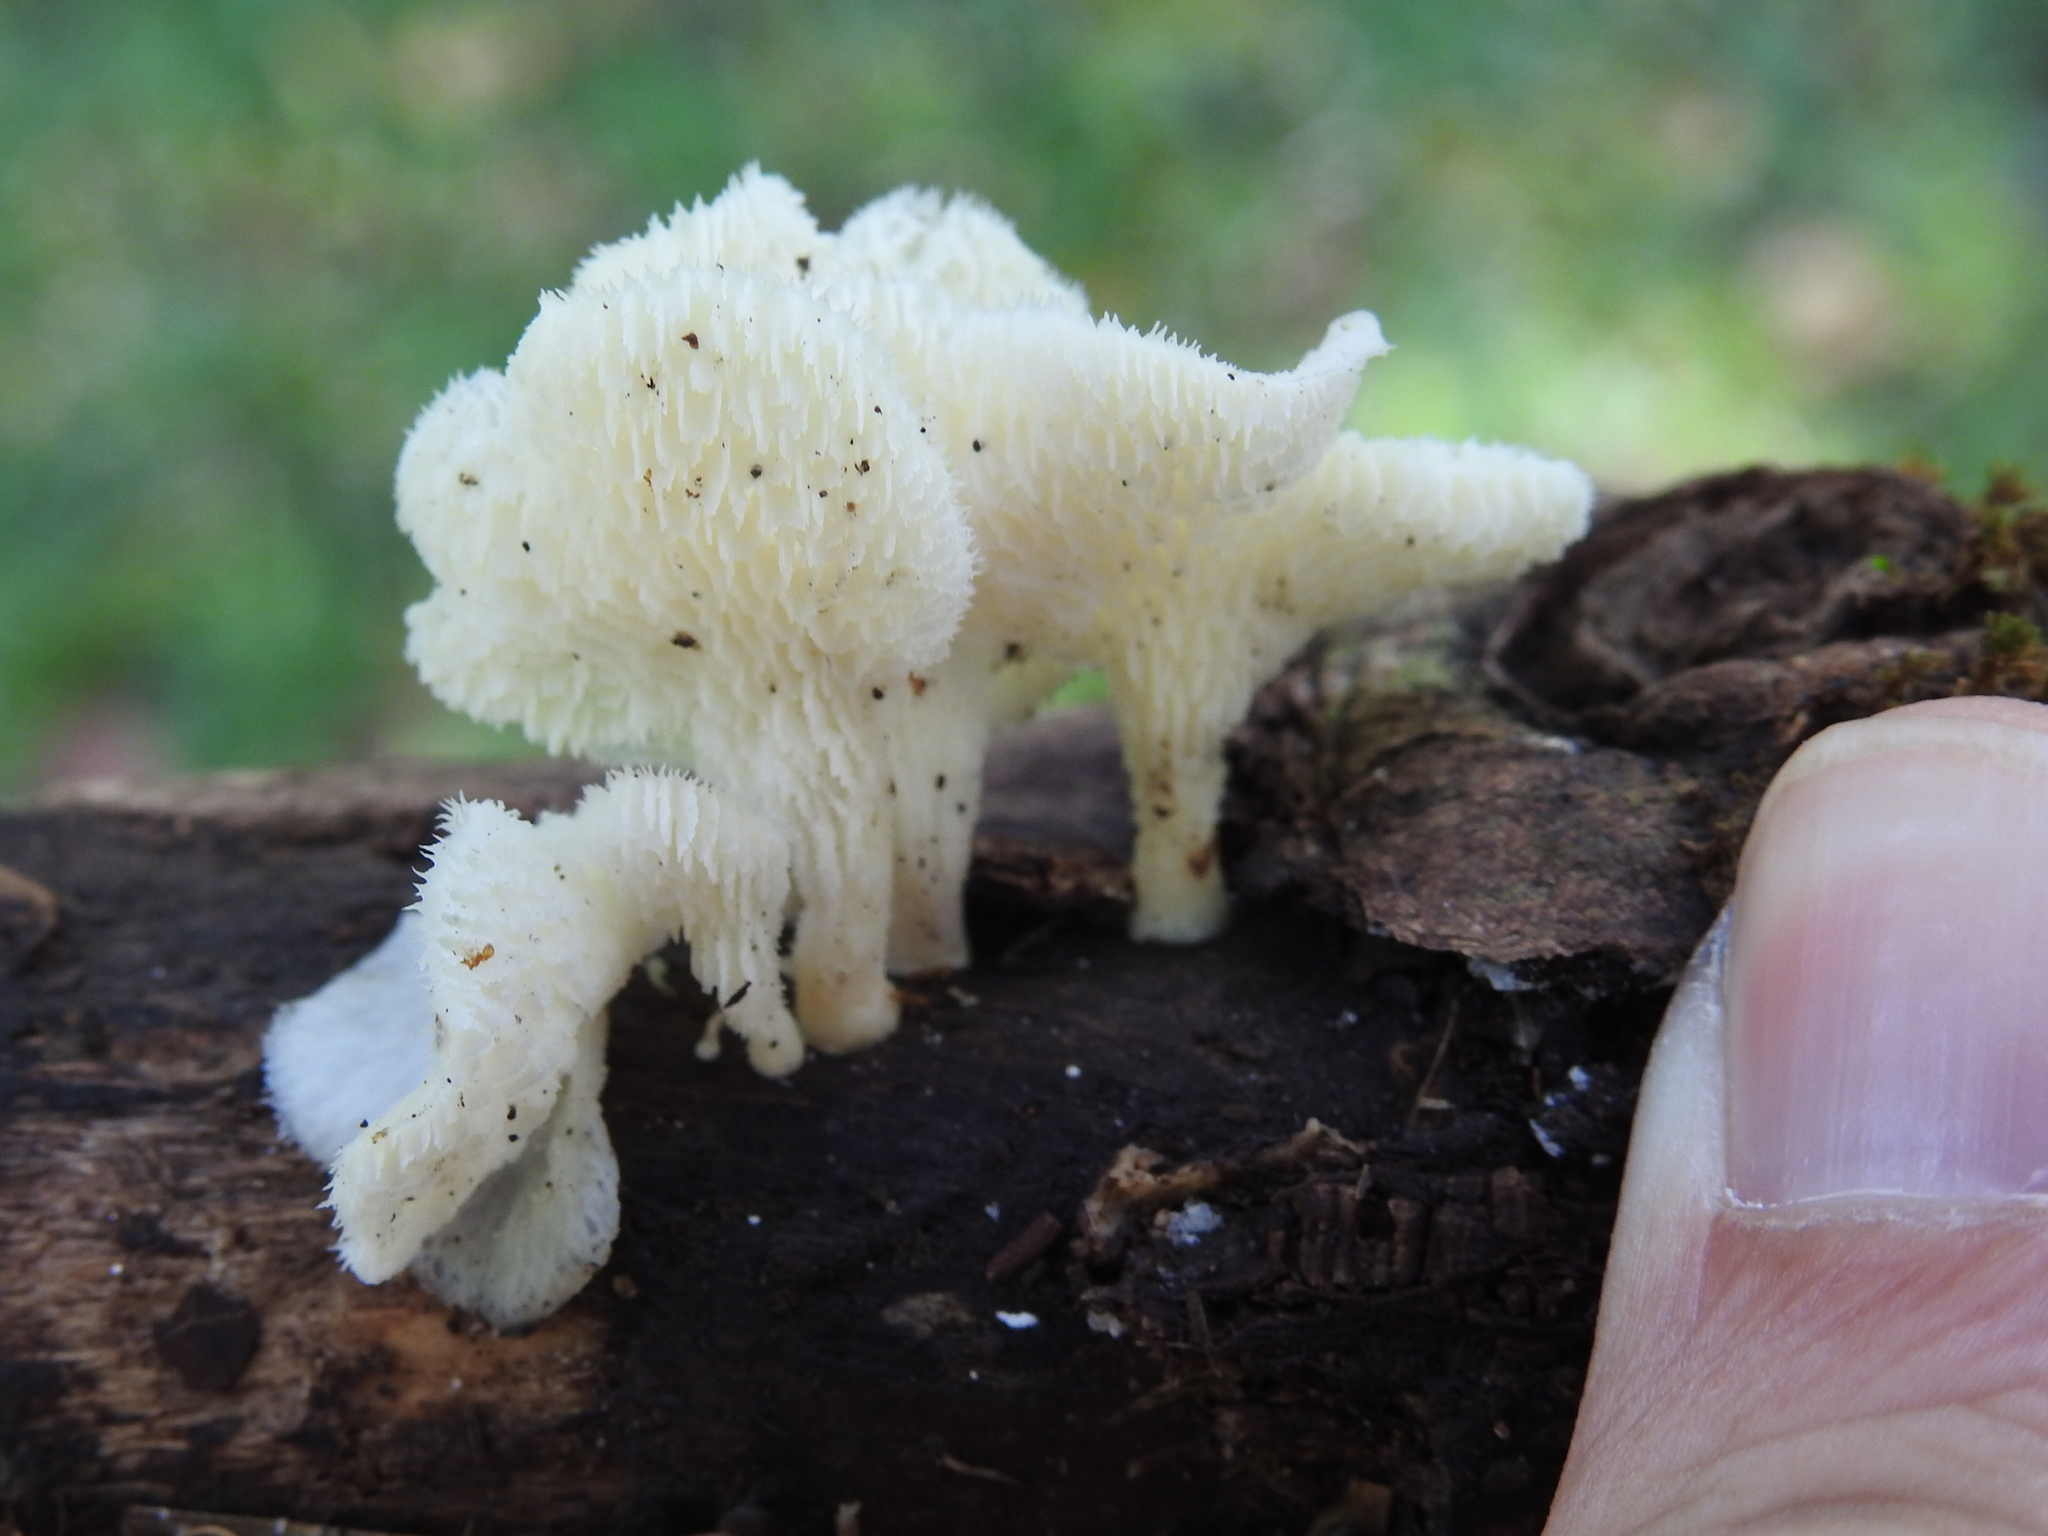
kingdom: Fungi
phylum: Basidiomycota
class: Agaricomycetes
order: Polyporales
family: Polyporaceae
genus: Favolus
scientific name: Favolus tenuiculus
